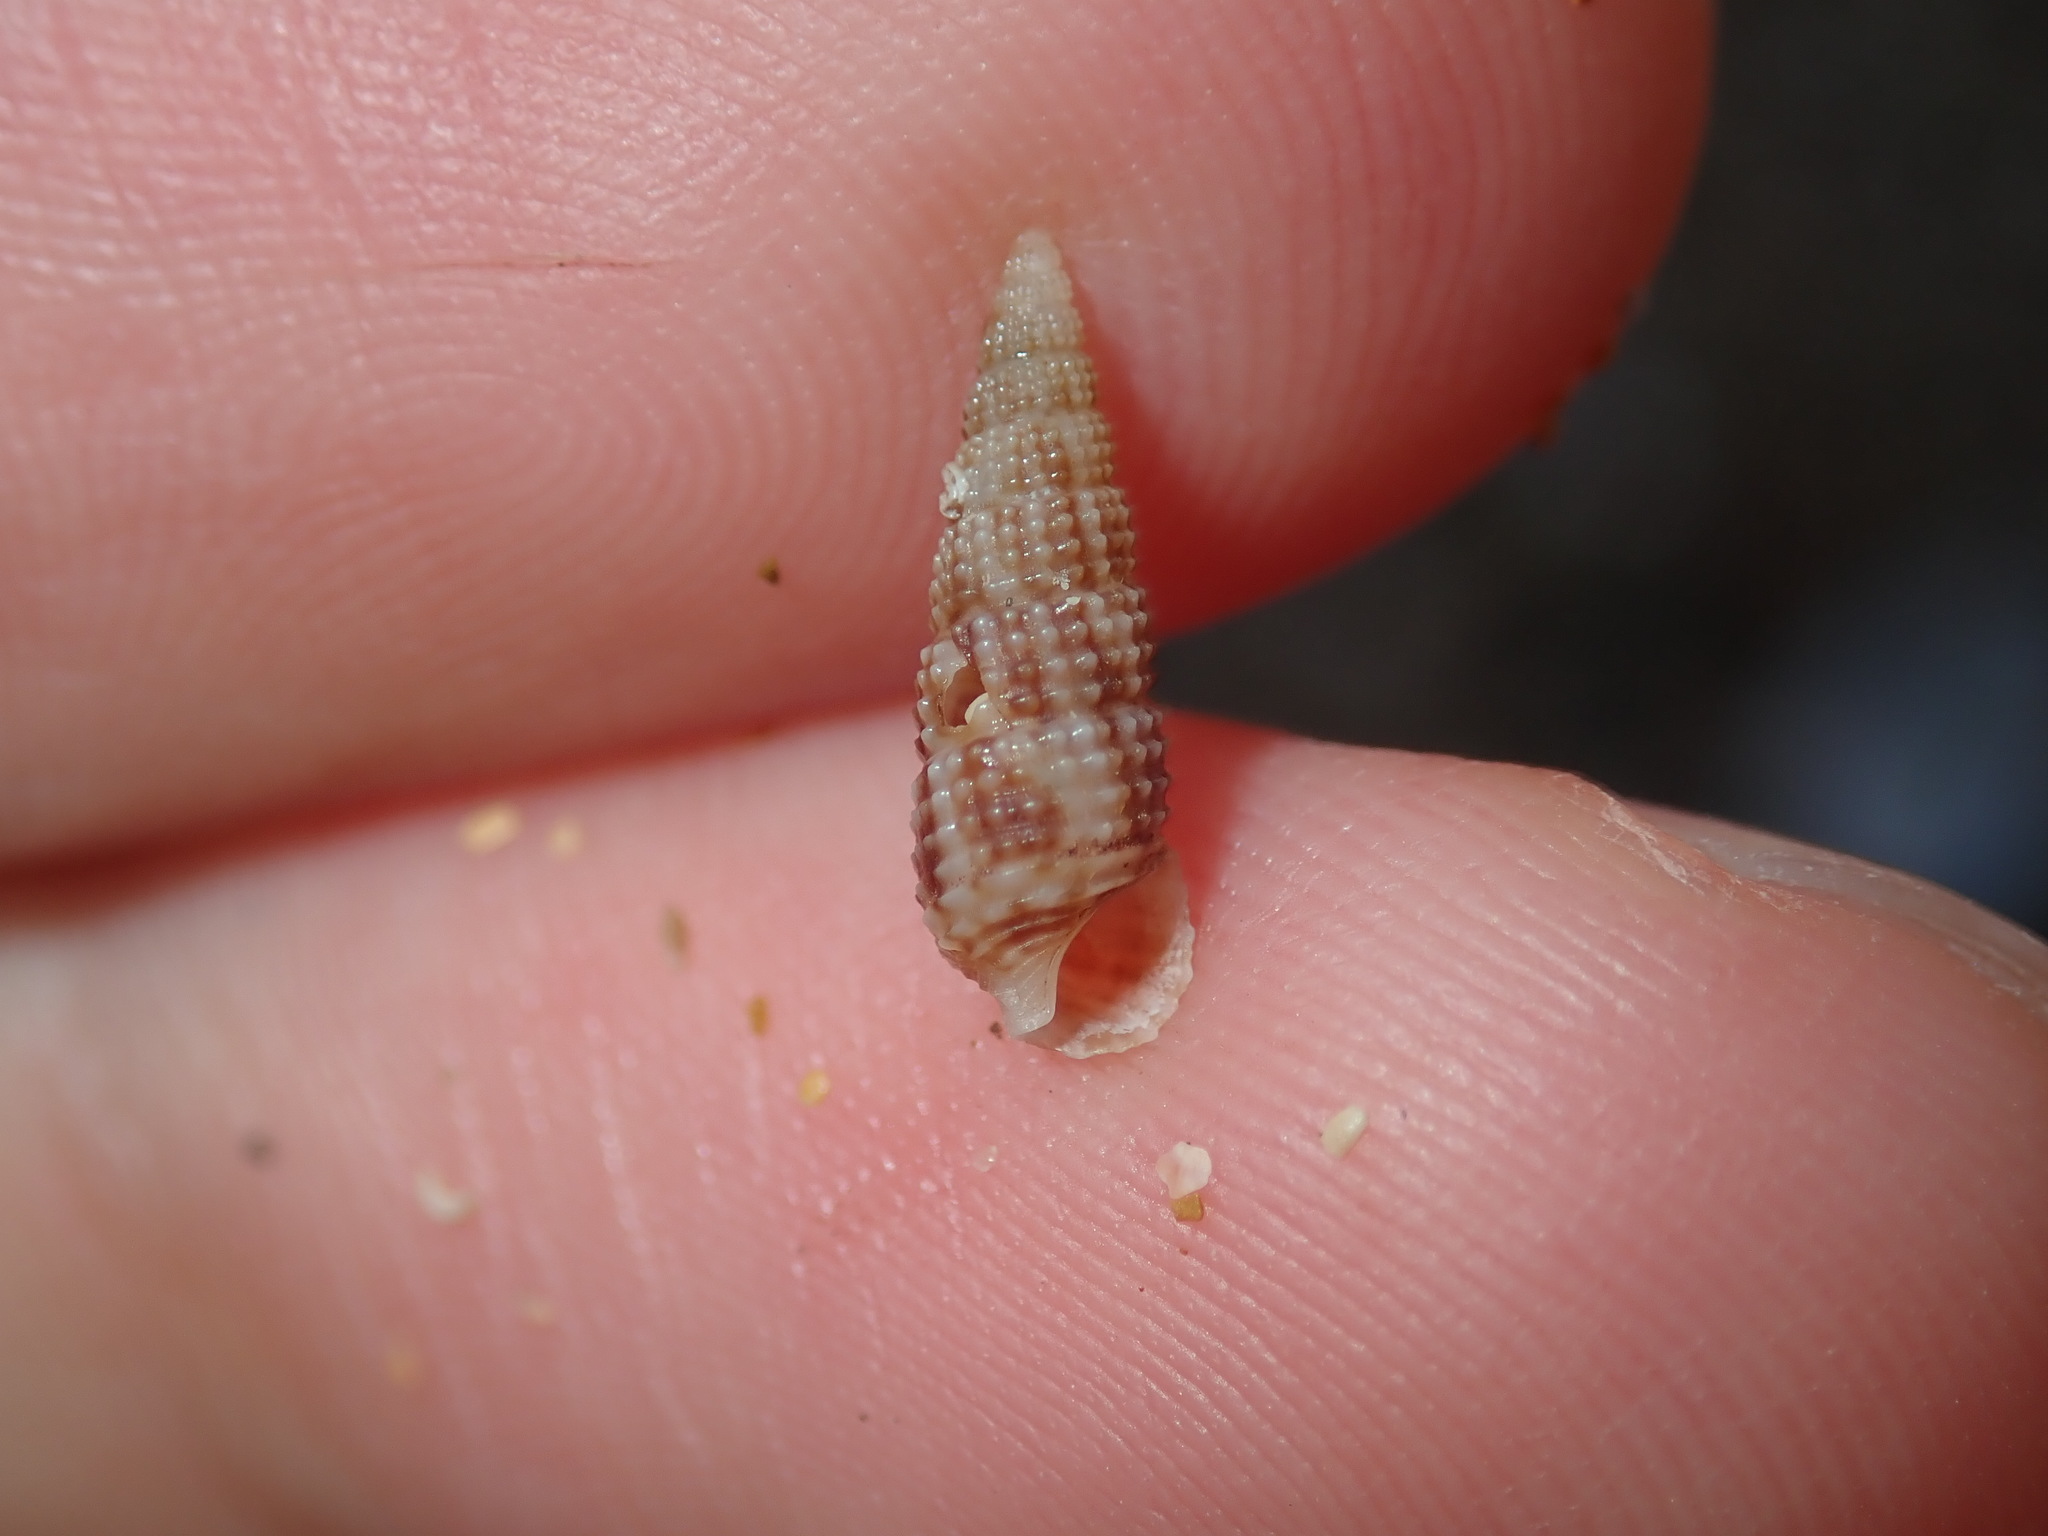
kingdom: Animalia
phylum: Mollusca
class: Gastropoda
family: Cerithiidae
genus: Cacozeliana
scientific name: Cacozeliana granarium
